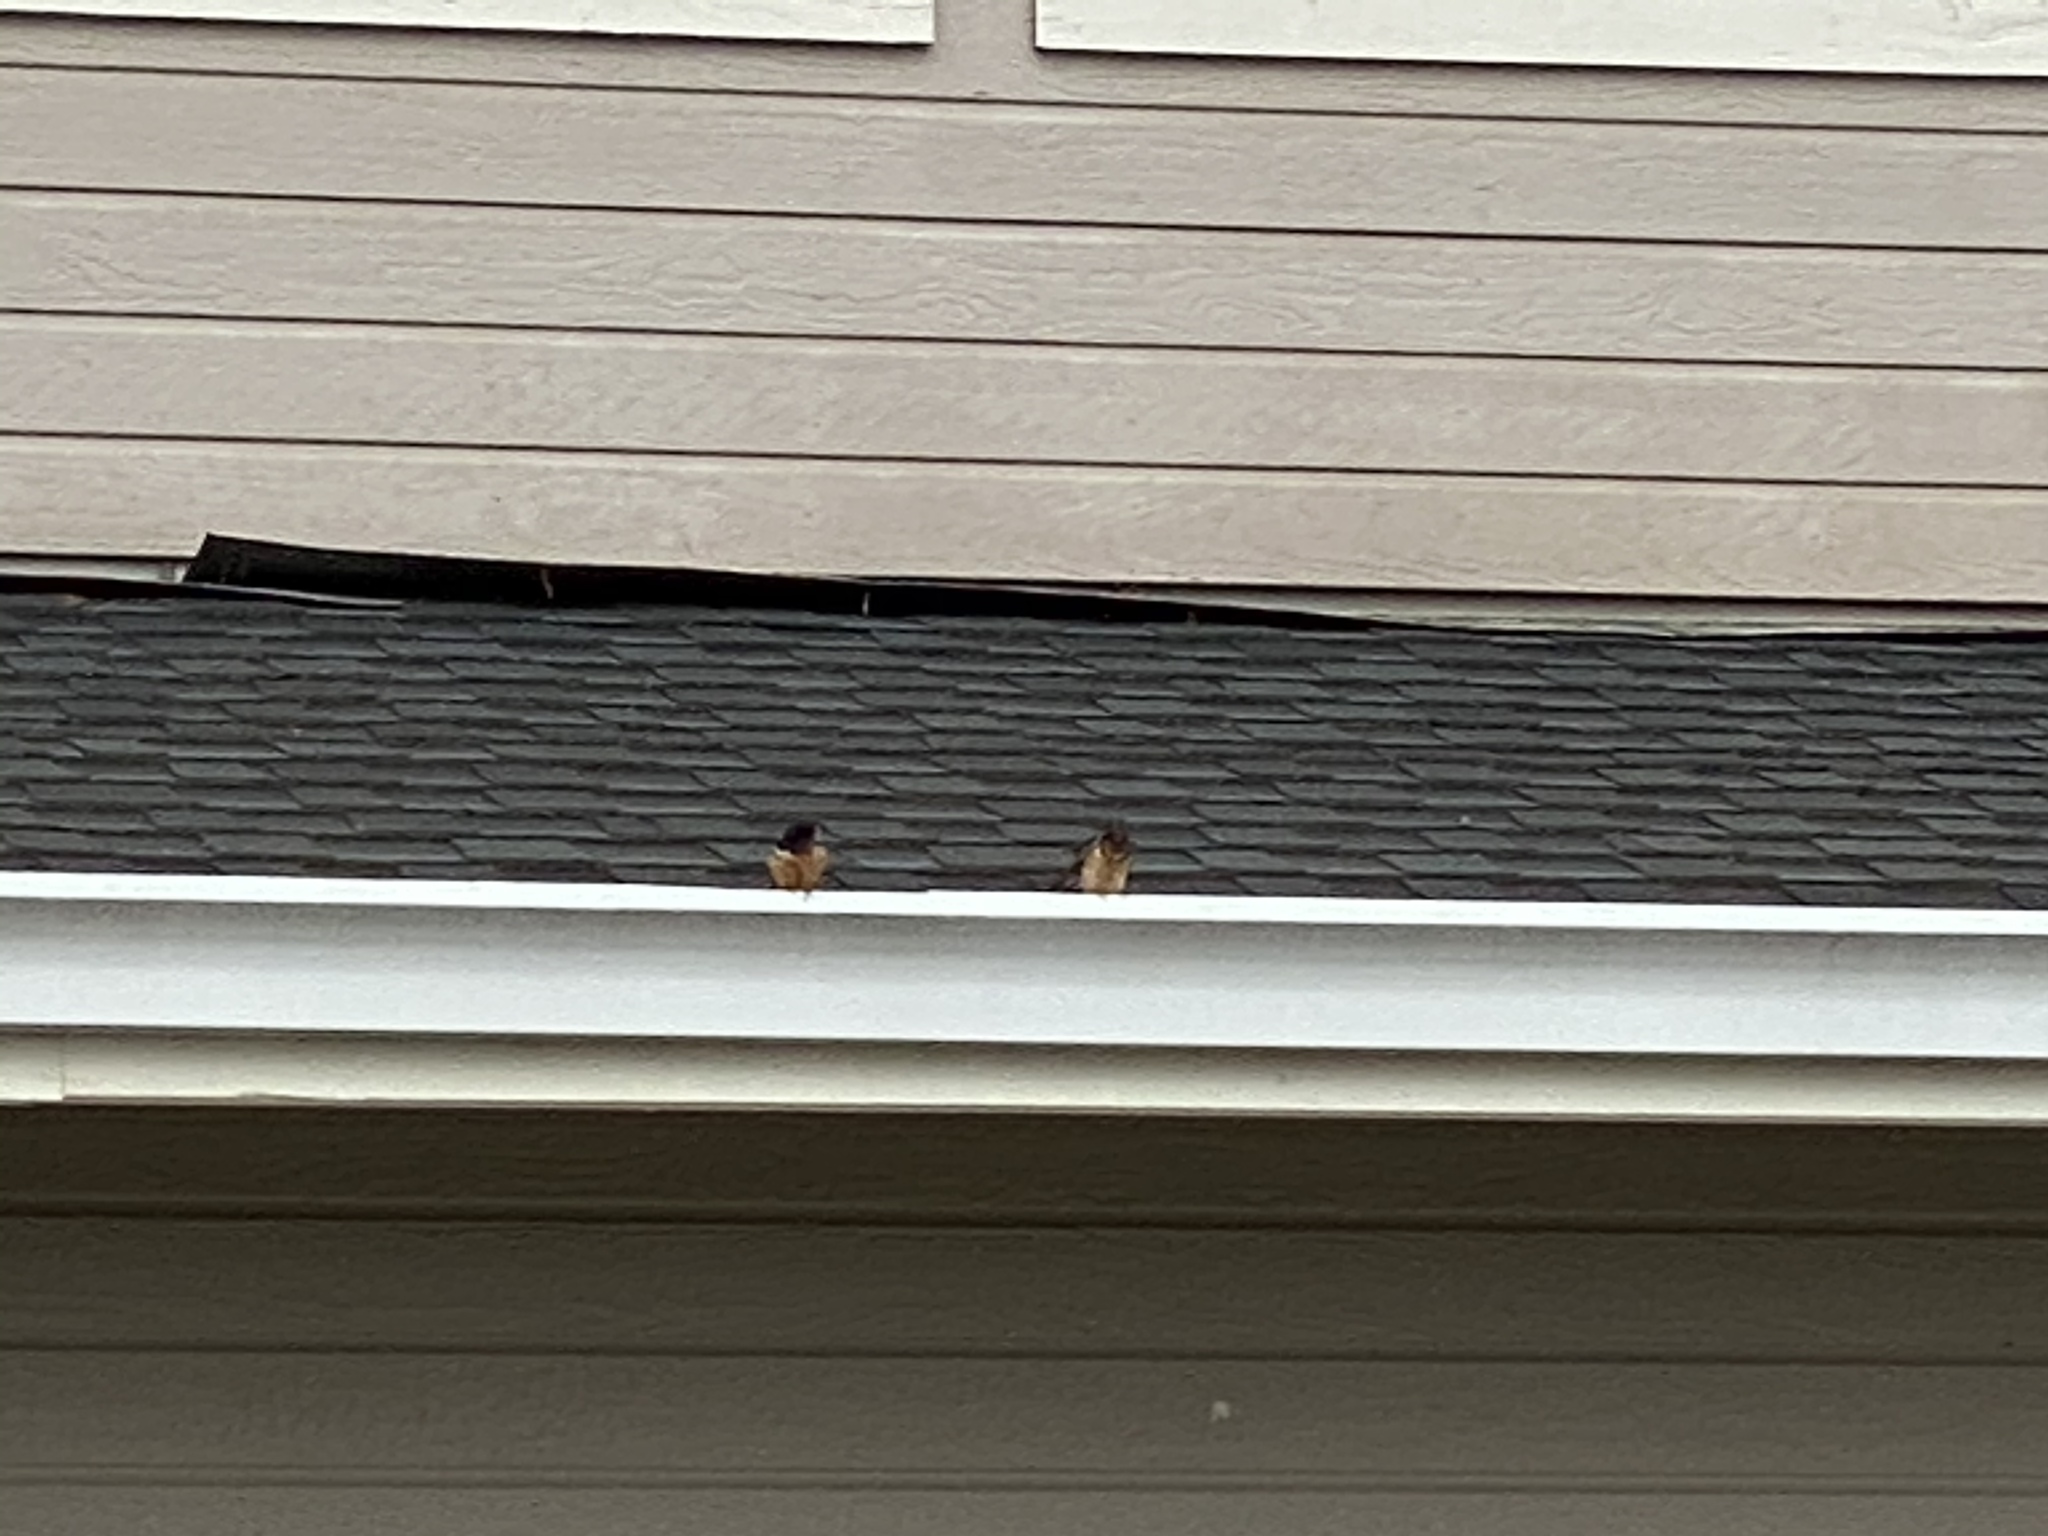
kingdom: Animalia
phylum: Chordata
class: Aves
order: Passeriformes
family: Hirundinidae
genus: Hirundo
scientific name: Hirundo rustica
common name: Barn swallow
